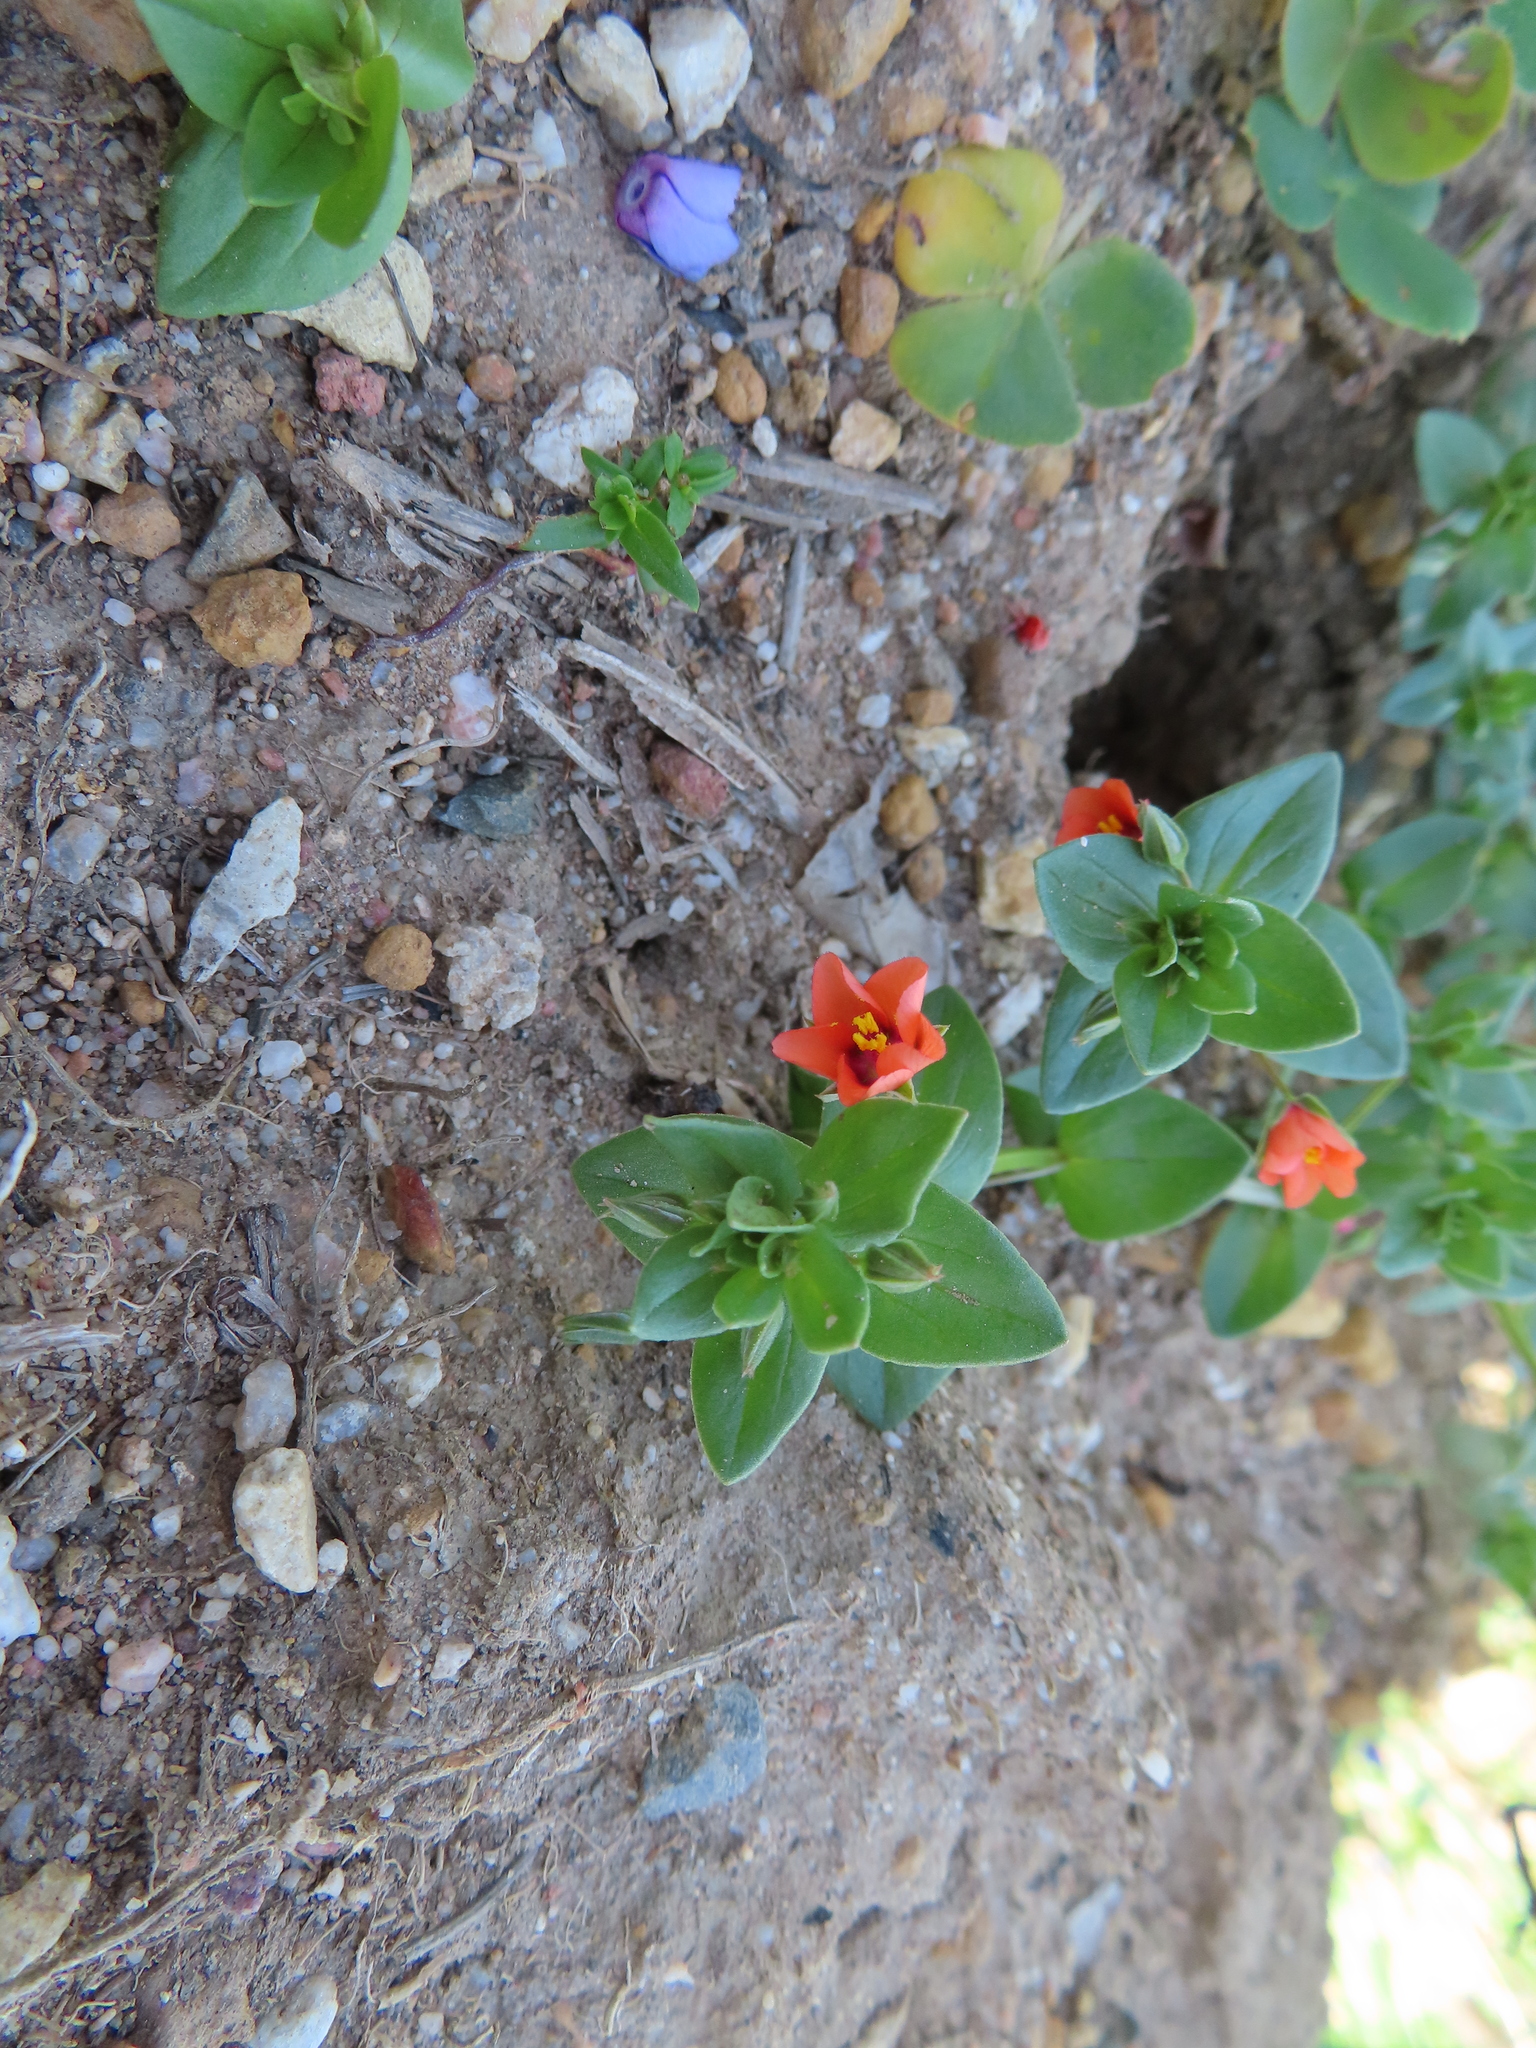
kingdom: Plantae
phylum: Tracheophyta
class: Magnoliopsida
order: Ericales
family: Primulaceae
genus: Lysimachia
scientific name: Lysimachia arvensis
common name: Scarlet pimpernel
